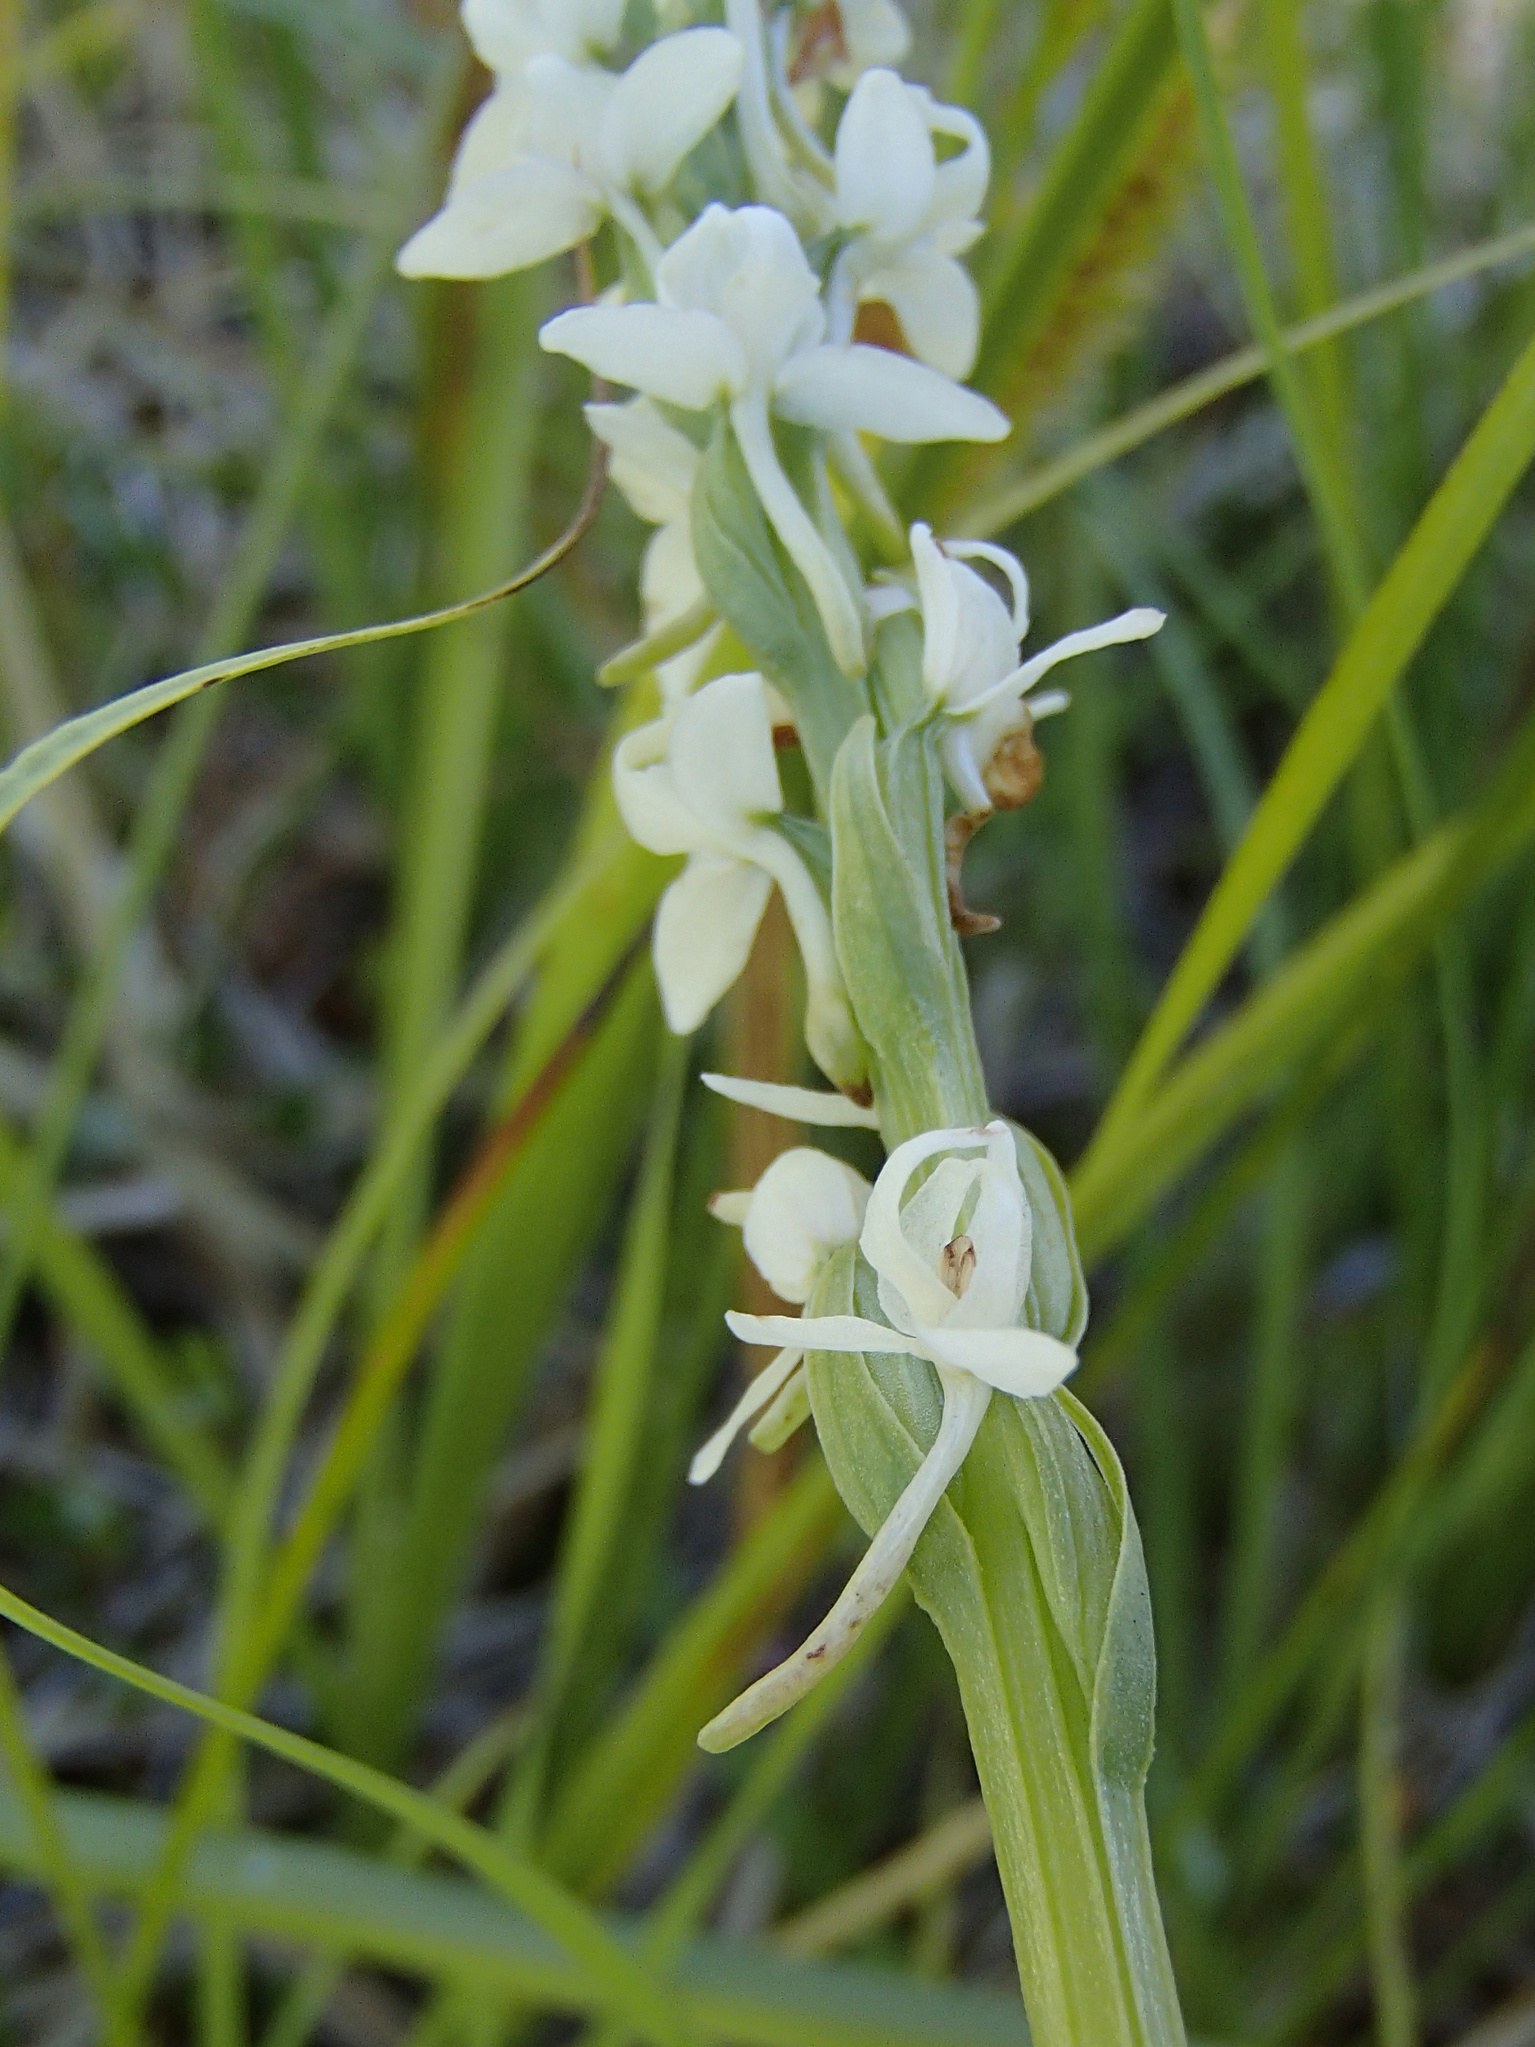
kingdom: Plantae
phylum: Tracheophyta
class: Liliopsida
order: Asparagales
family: Orchidaceae
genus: Platanthera
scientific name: Platanthera dilatata
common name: Bog candles
